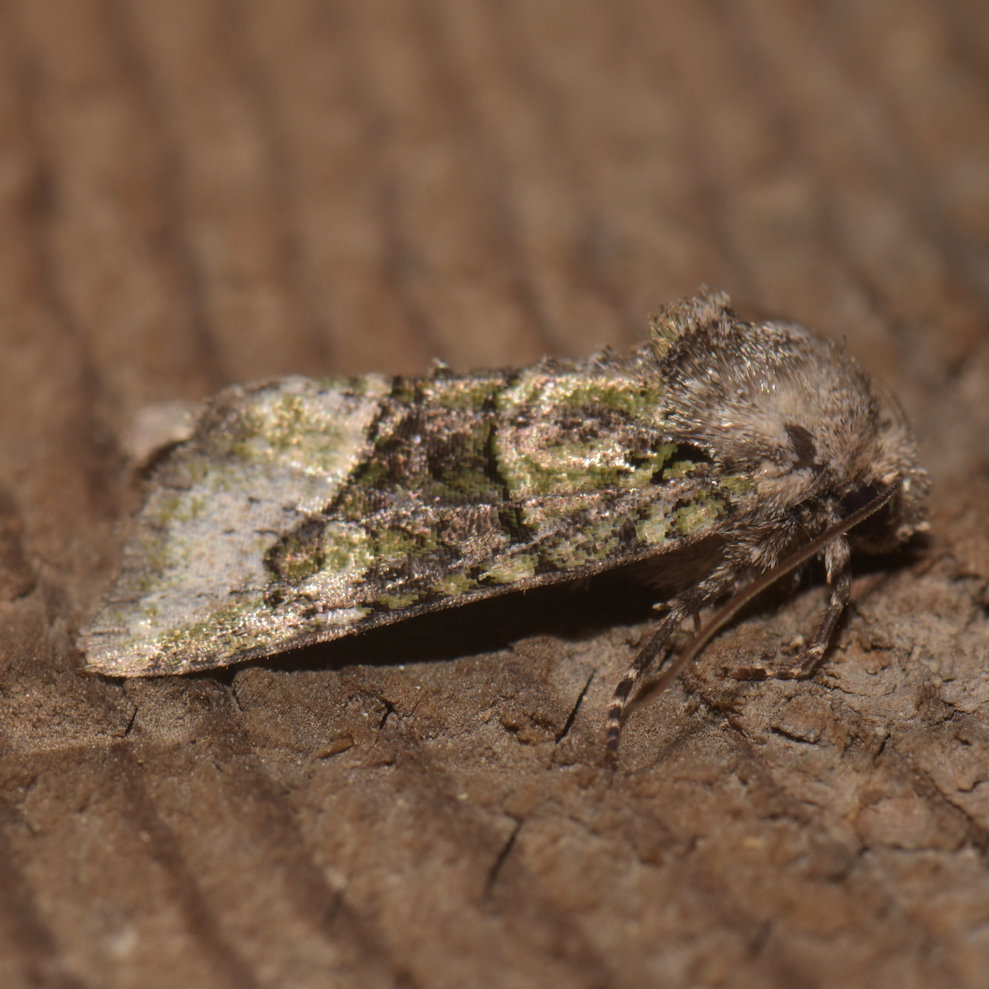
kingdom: Animalia
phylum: Arthropoda
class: Insecta
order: Lepidoptera
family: Noctuidae
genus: Lacinipolia
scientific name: Lacinipolia olivacea
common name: Olive arches moth
